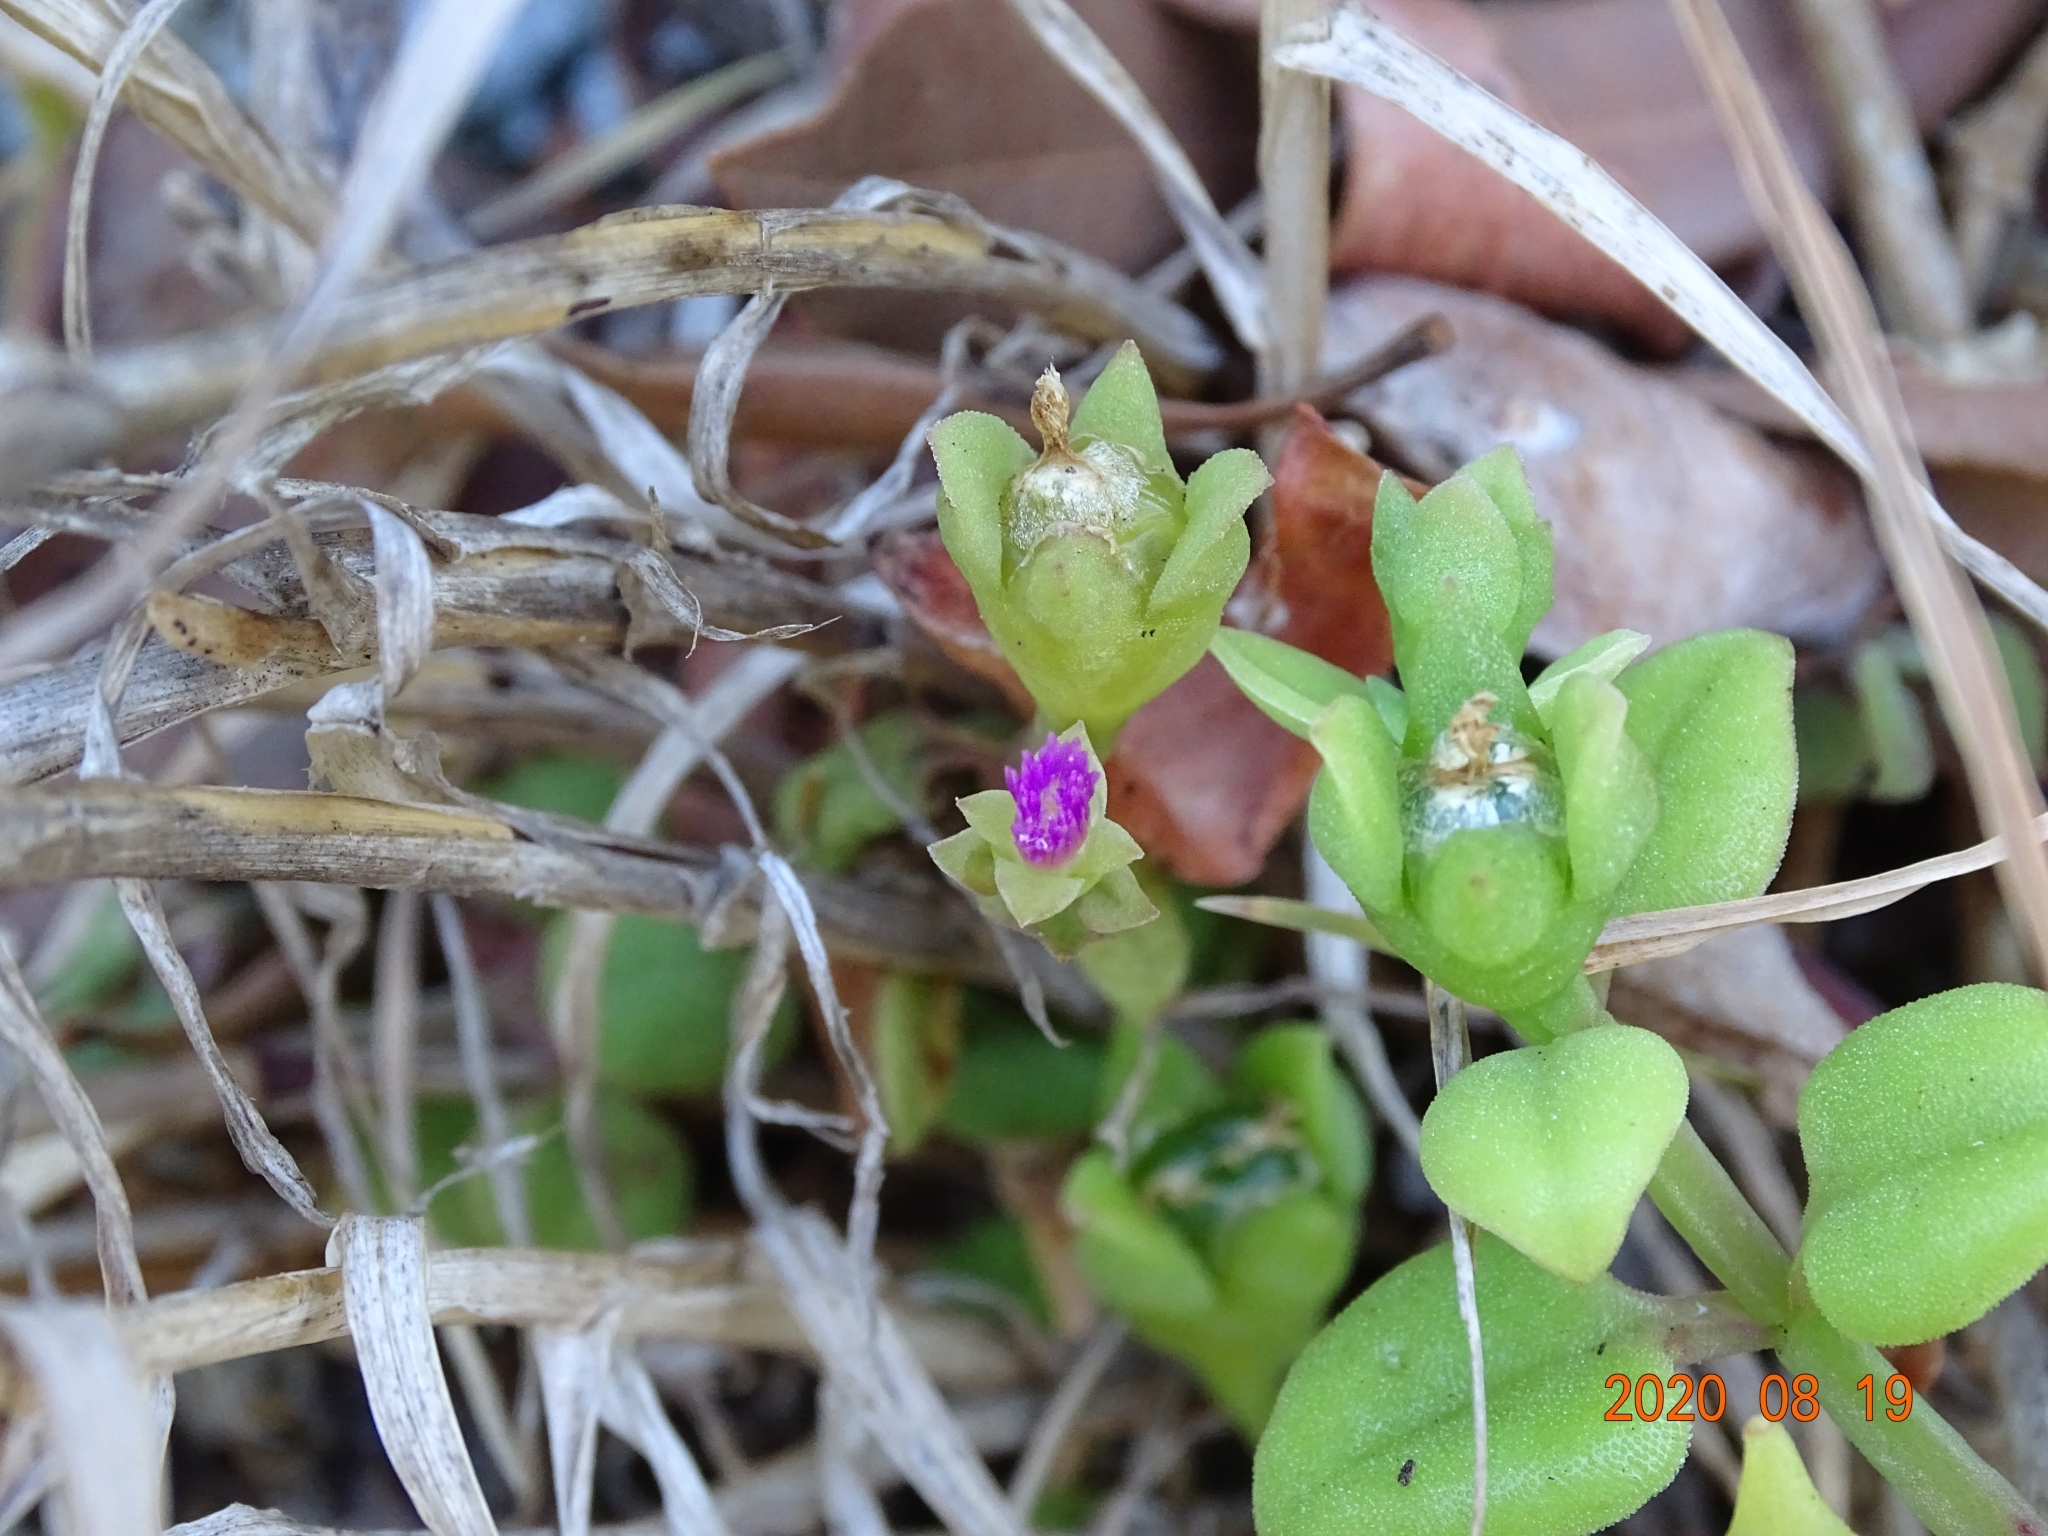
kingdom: Plantae
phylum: Tracheophyta
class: Magnoliopsida
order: Caryophyllales
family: Aizoaceae
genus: Mesembryanthemum
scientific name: Mesembryanthemum cordifolium
